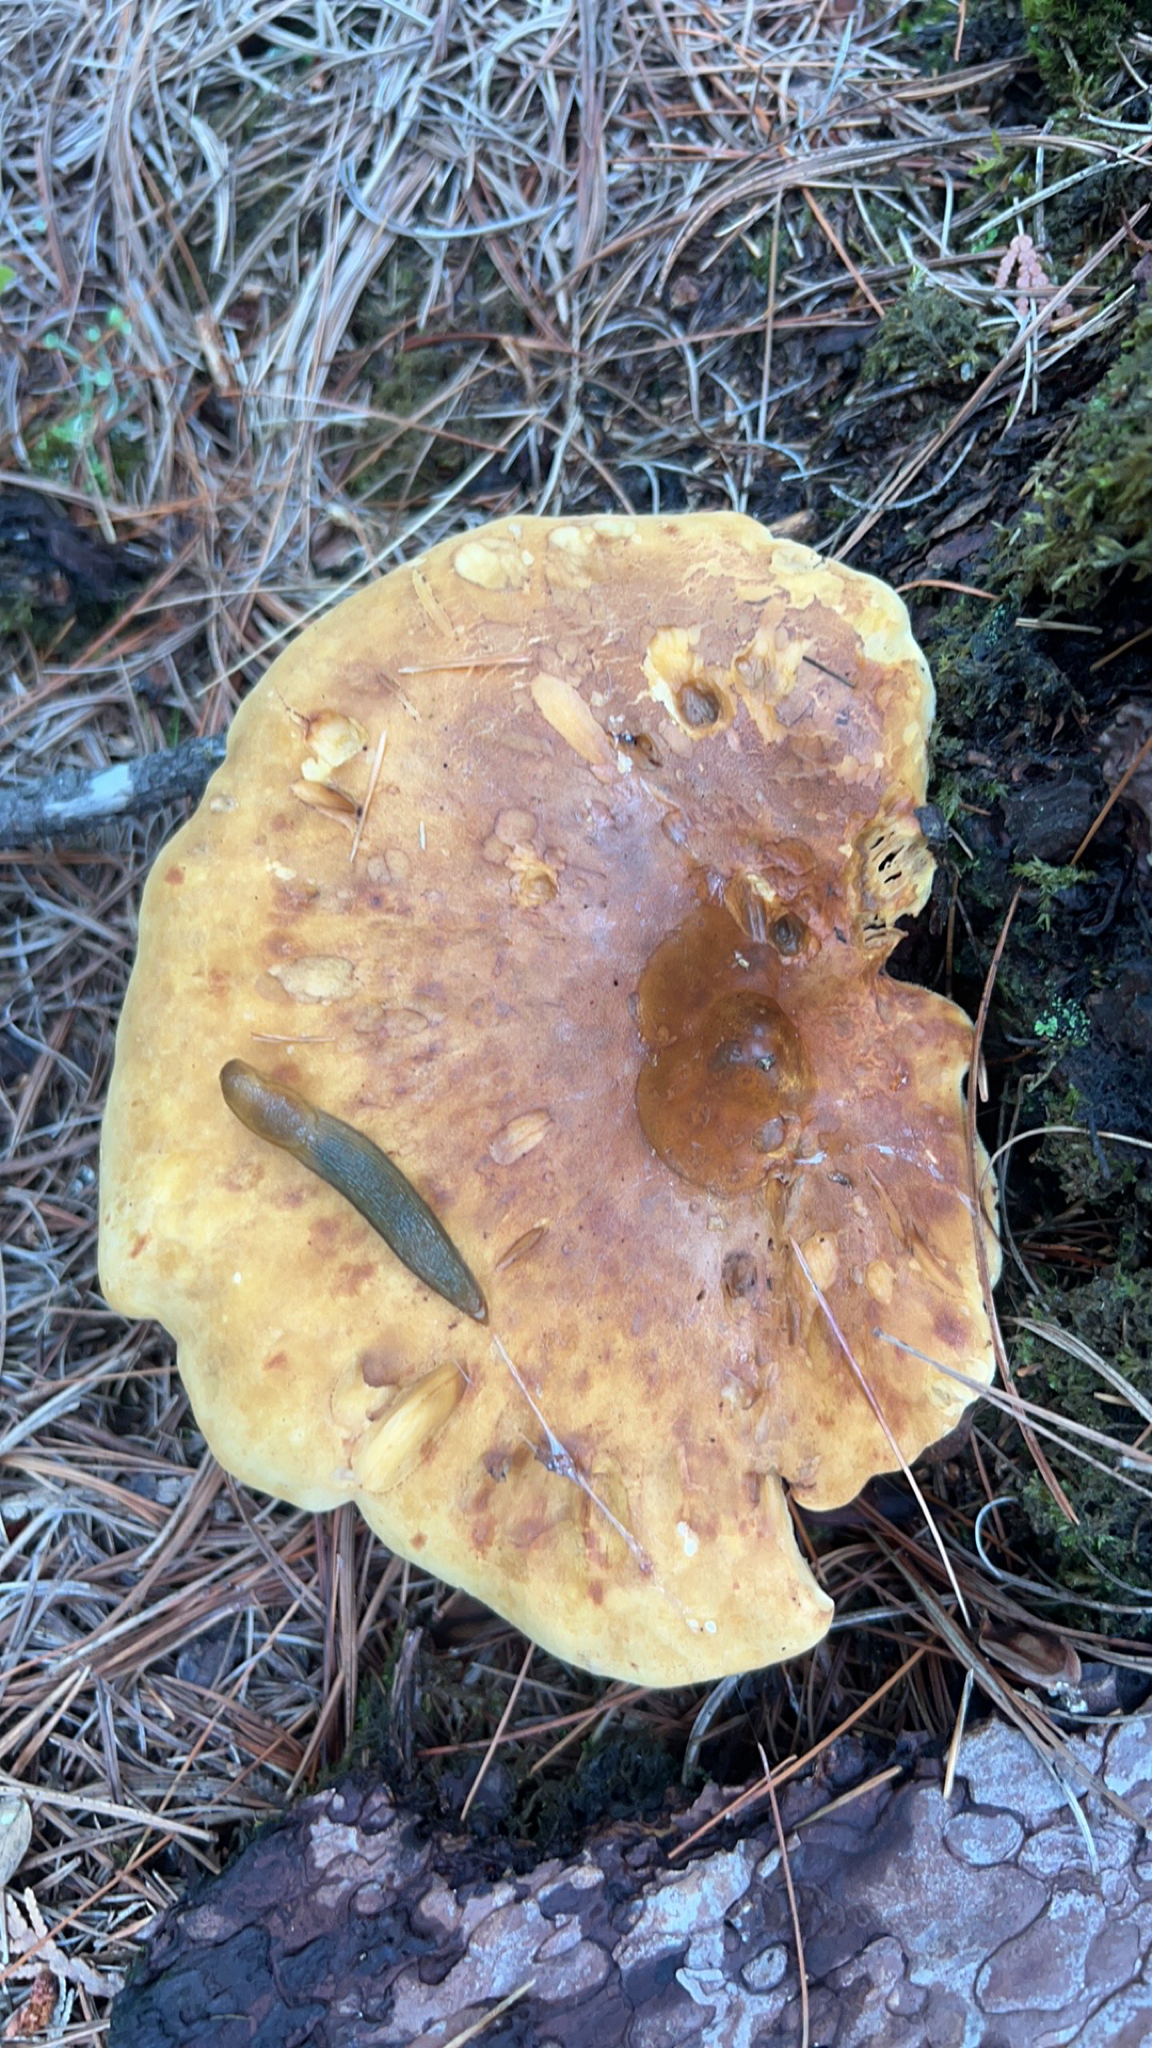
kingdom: Fungi
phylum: Basidiomycota
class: Agaricomycetes
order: Boletales
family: Tapinellaceae
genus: Tapinella
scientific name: Tapinella atrotomentosa
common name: Velvet rollrim
